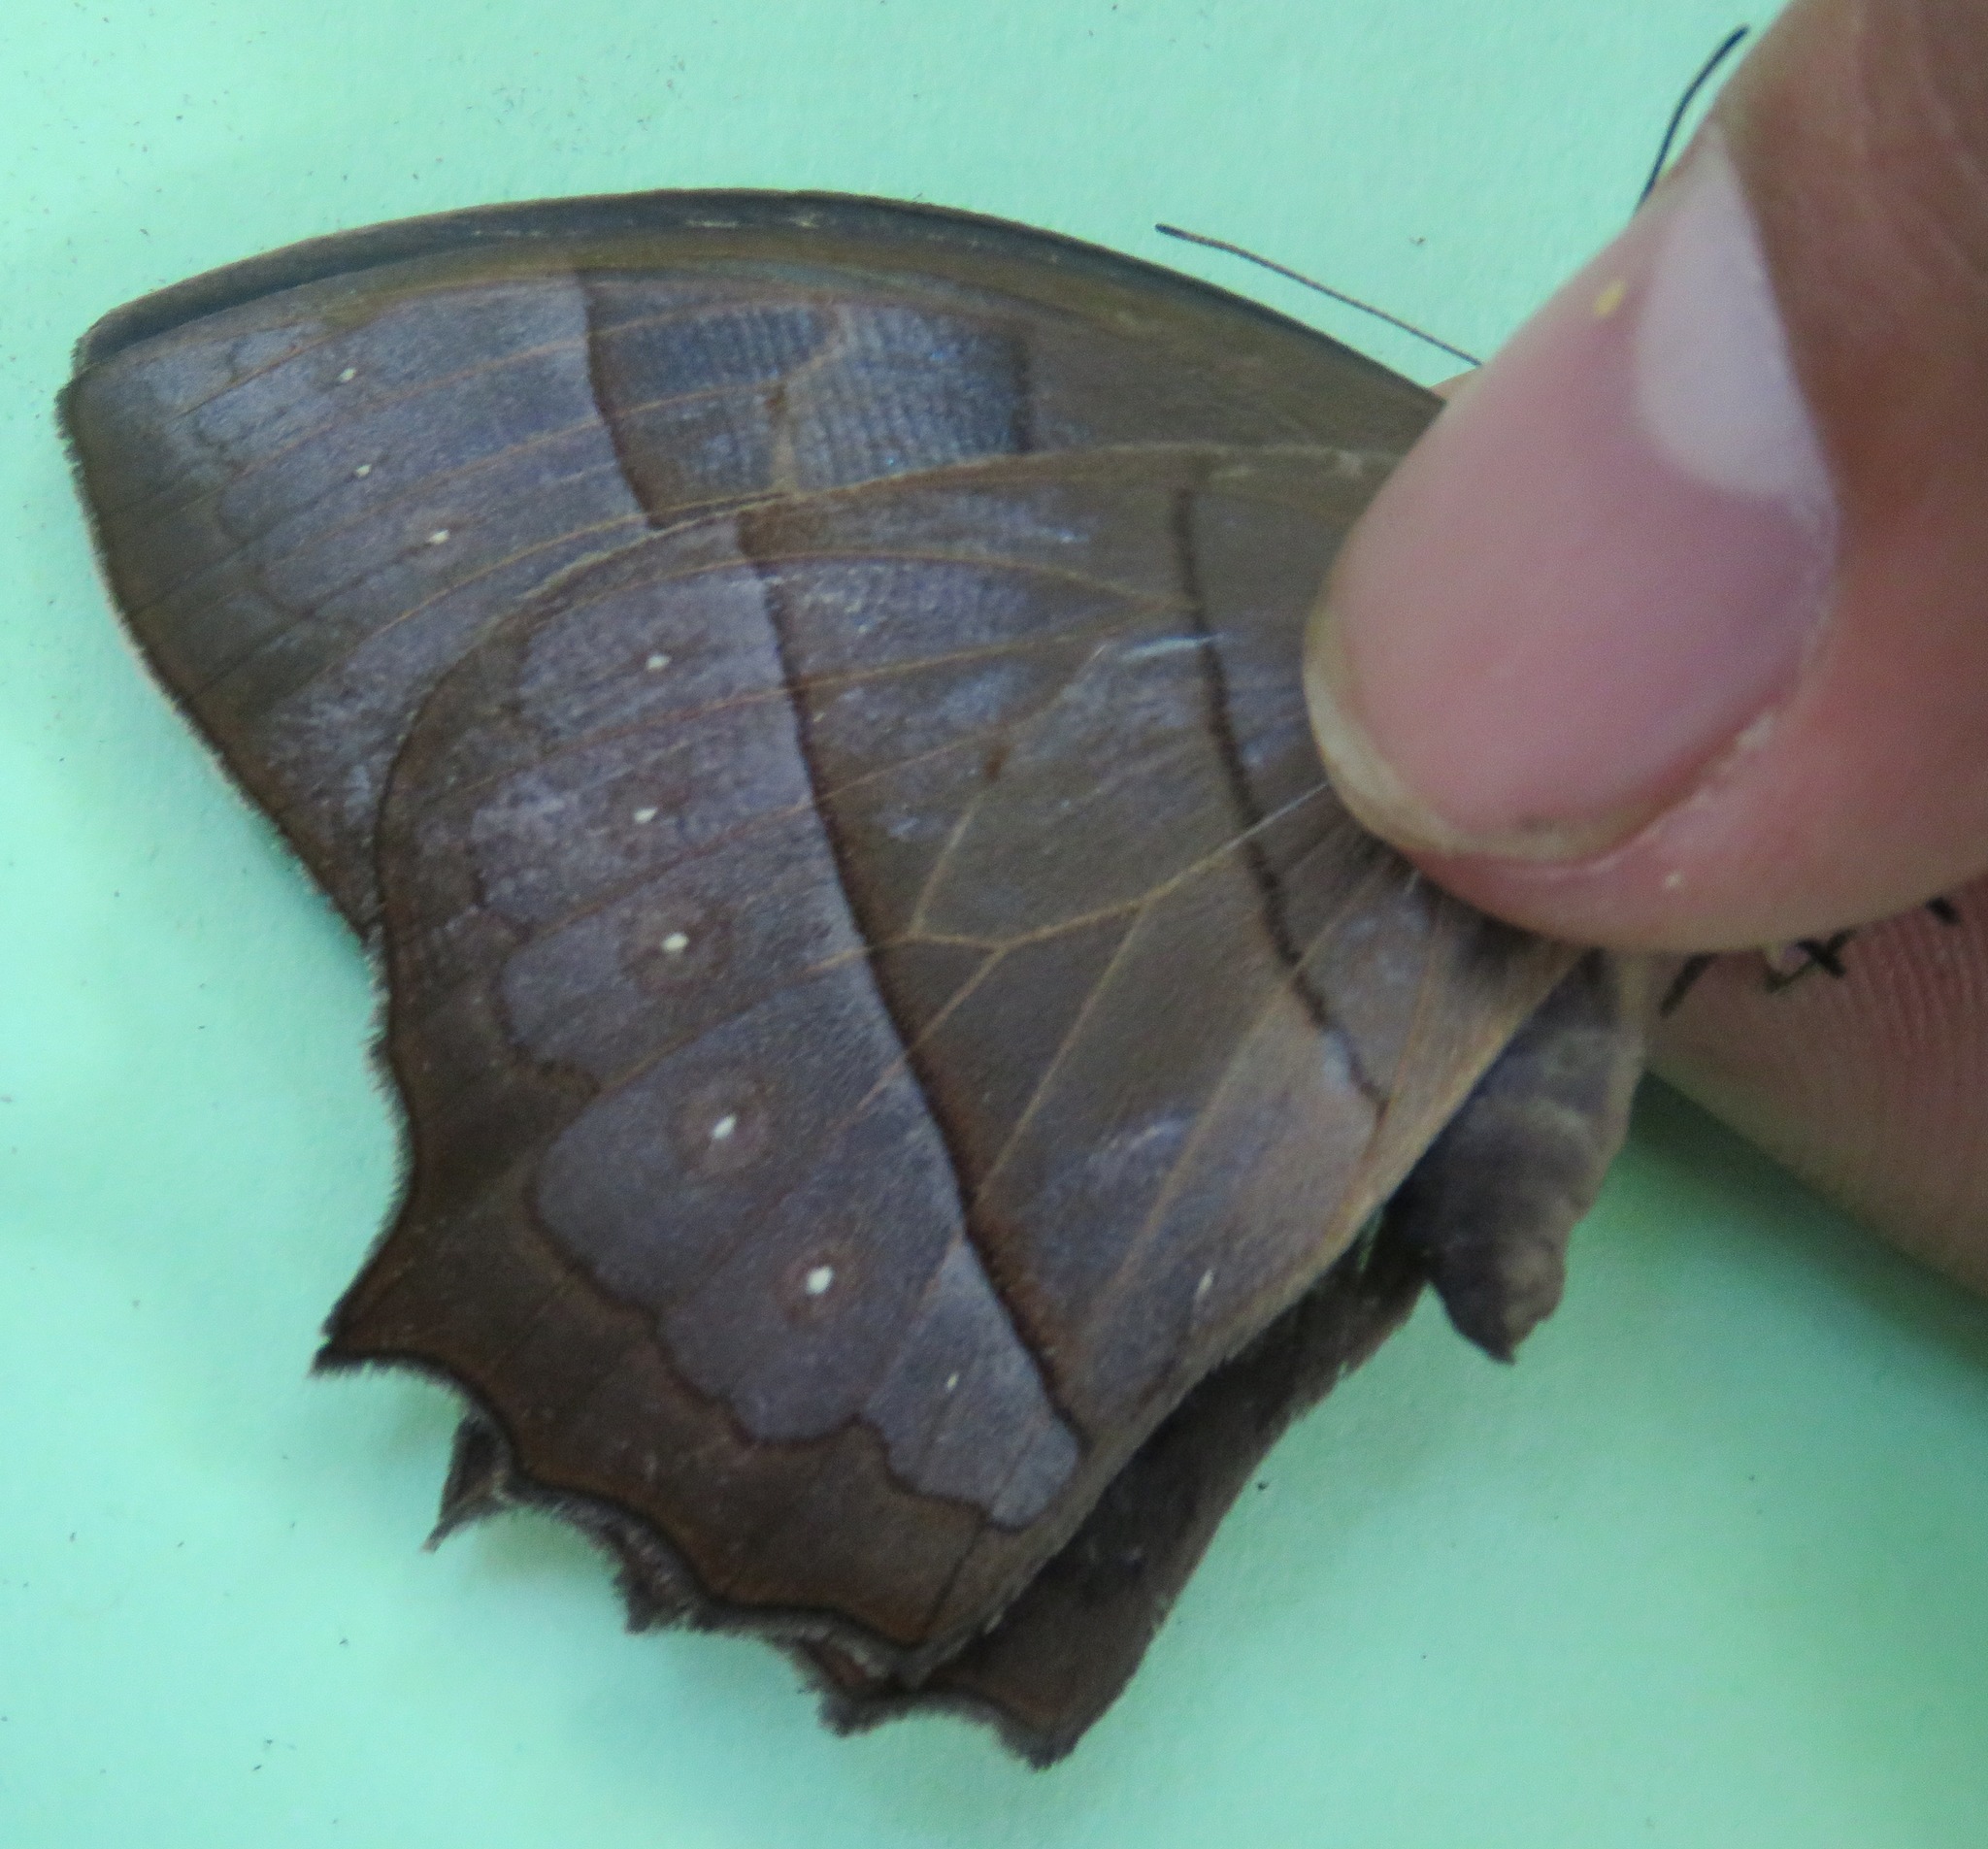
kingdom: Animalia
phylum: Arthropoda
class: Insecta
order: Lepidoptera
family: Nymphalidae
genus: Taygetis
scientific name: Taygetis virgilia
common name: Stub-tailed satyr
